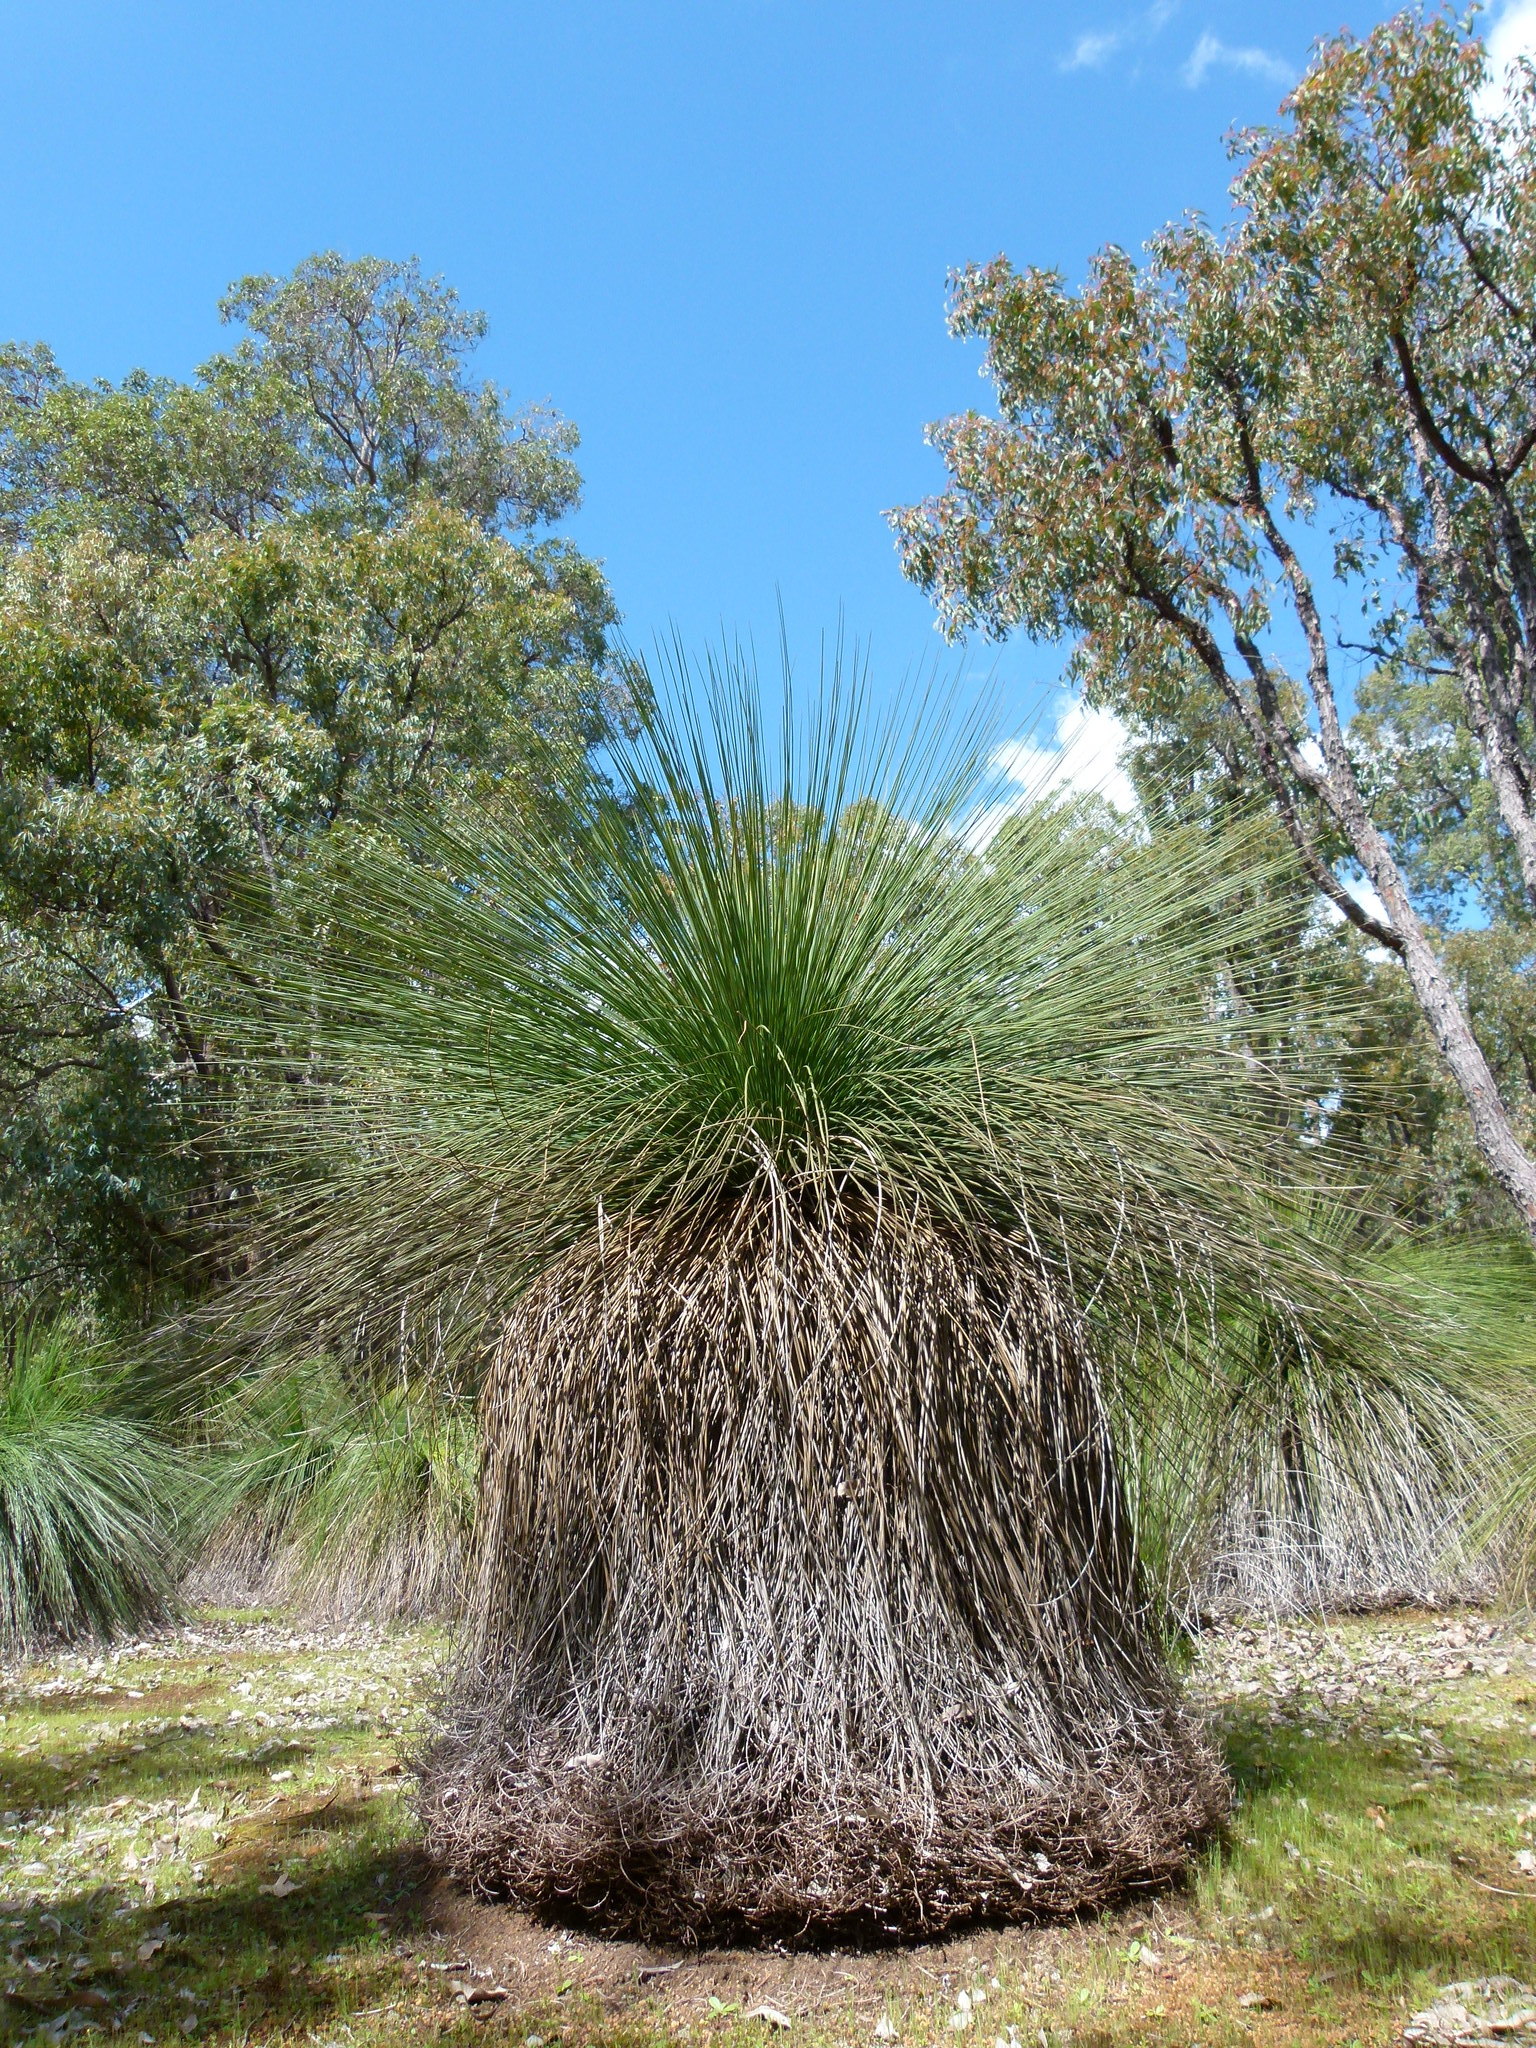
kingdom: Plantae
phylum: Tracheophyta
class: Liliopsida
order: Asparagales
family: Asphodelaceae
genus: Xanthorrhoea
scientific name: Xanthorrhoea preissii
